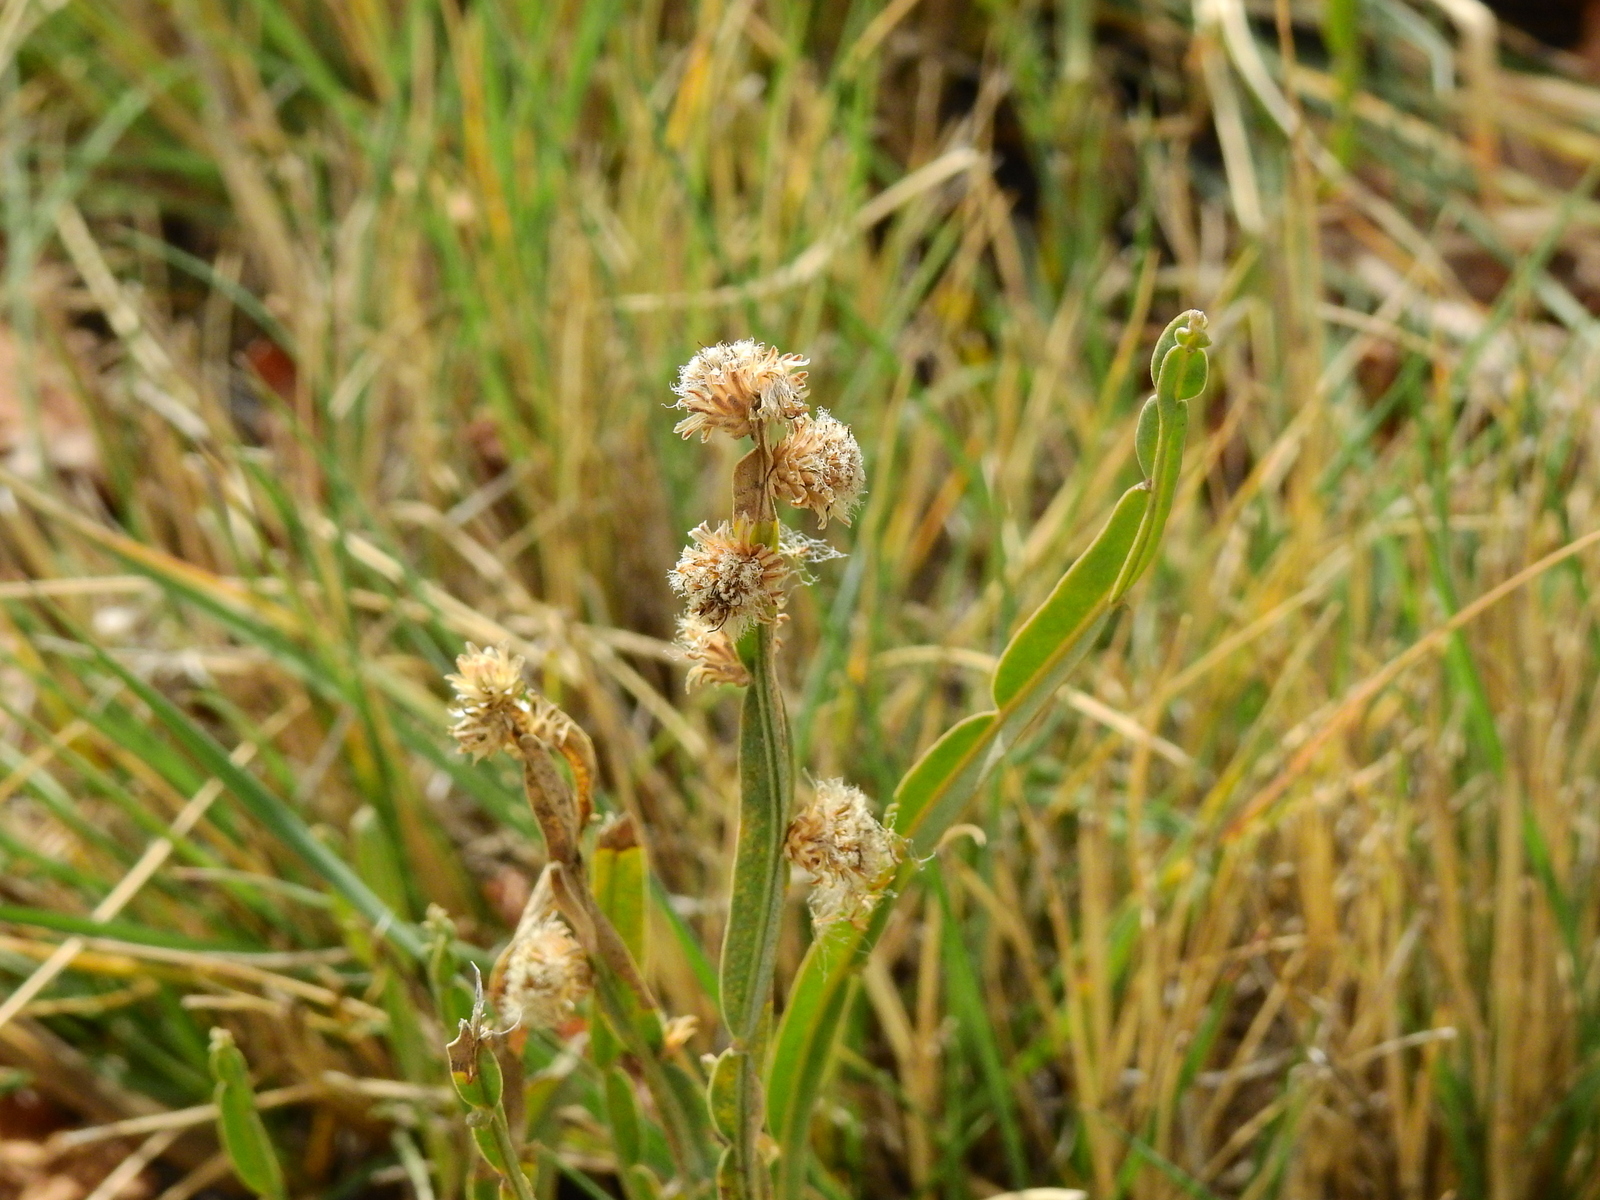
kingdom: Plantae
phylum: Tracheophyta
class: Magnoliopsida
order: Asterales
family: Asteraceae
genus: Baccharis
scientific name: Baccharis crispa
